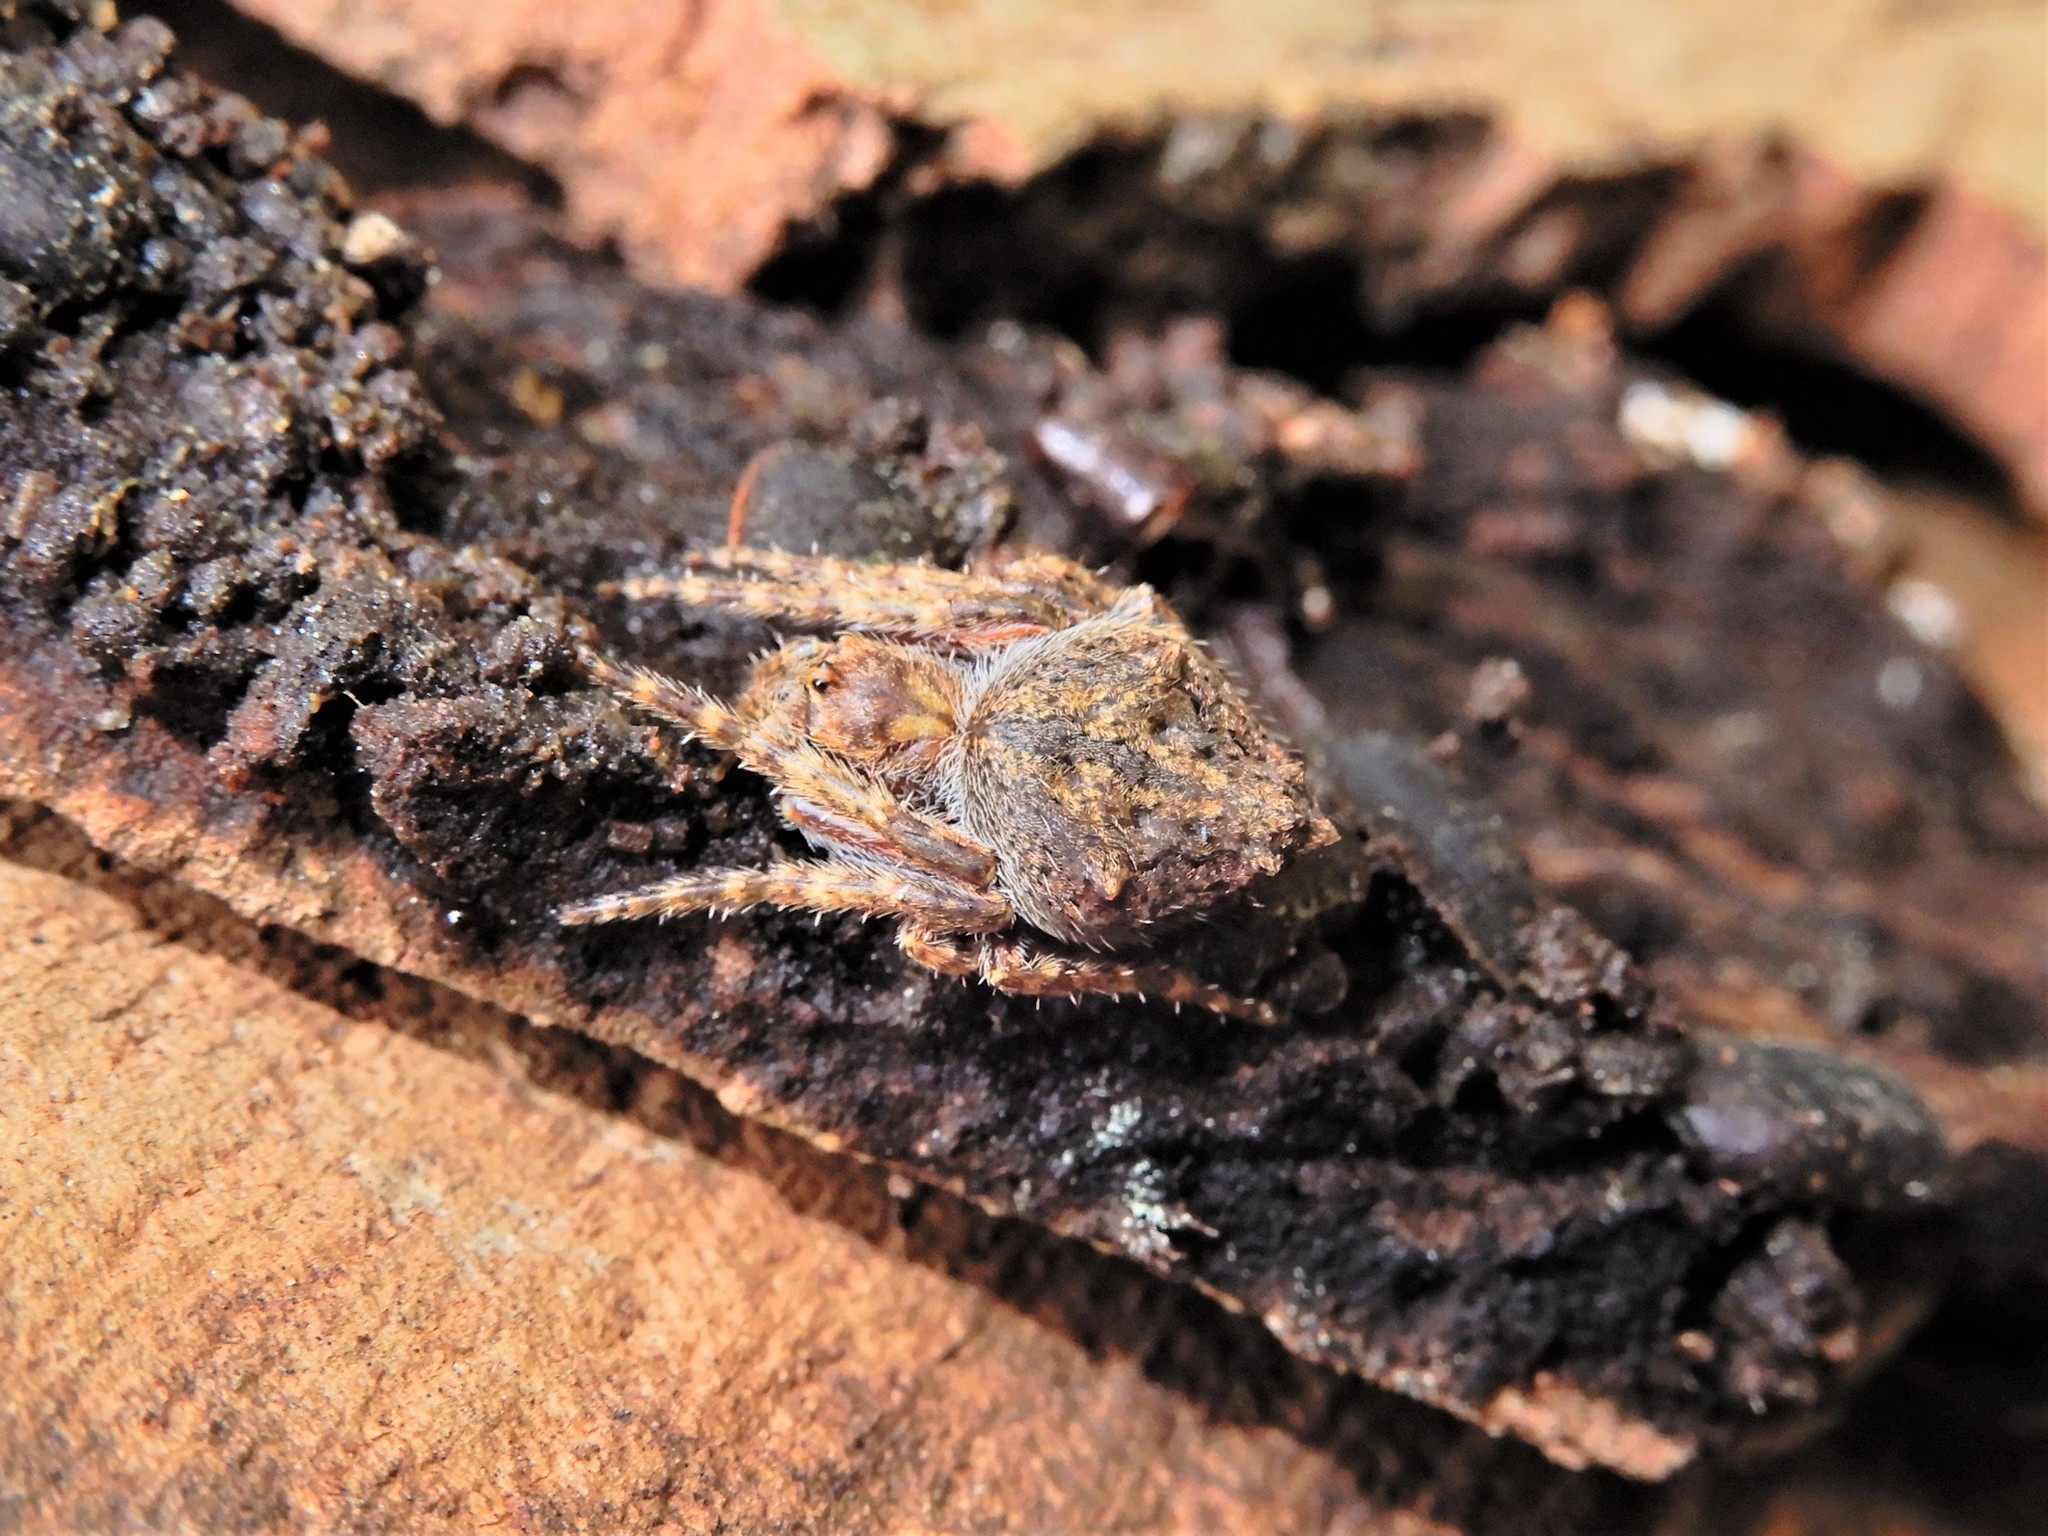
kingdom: Animalia
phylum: Arthropoda
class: Arachnida
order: Araneae
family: Araneidae
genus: Eriophora
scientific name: Eriophora pustulosa
